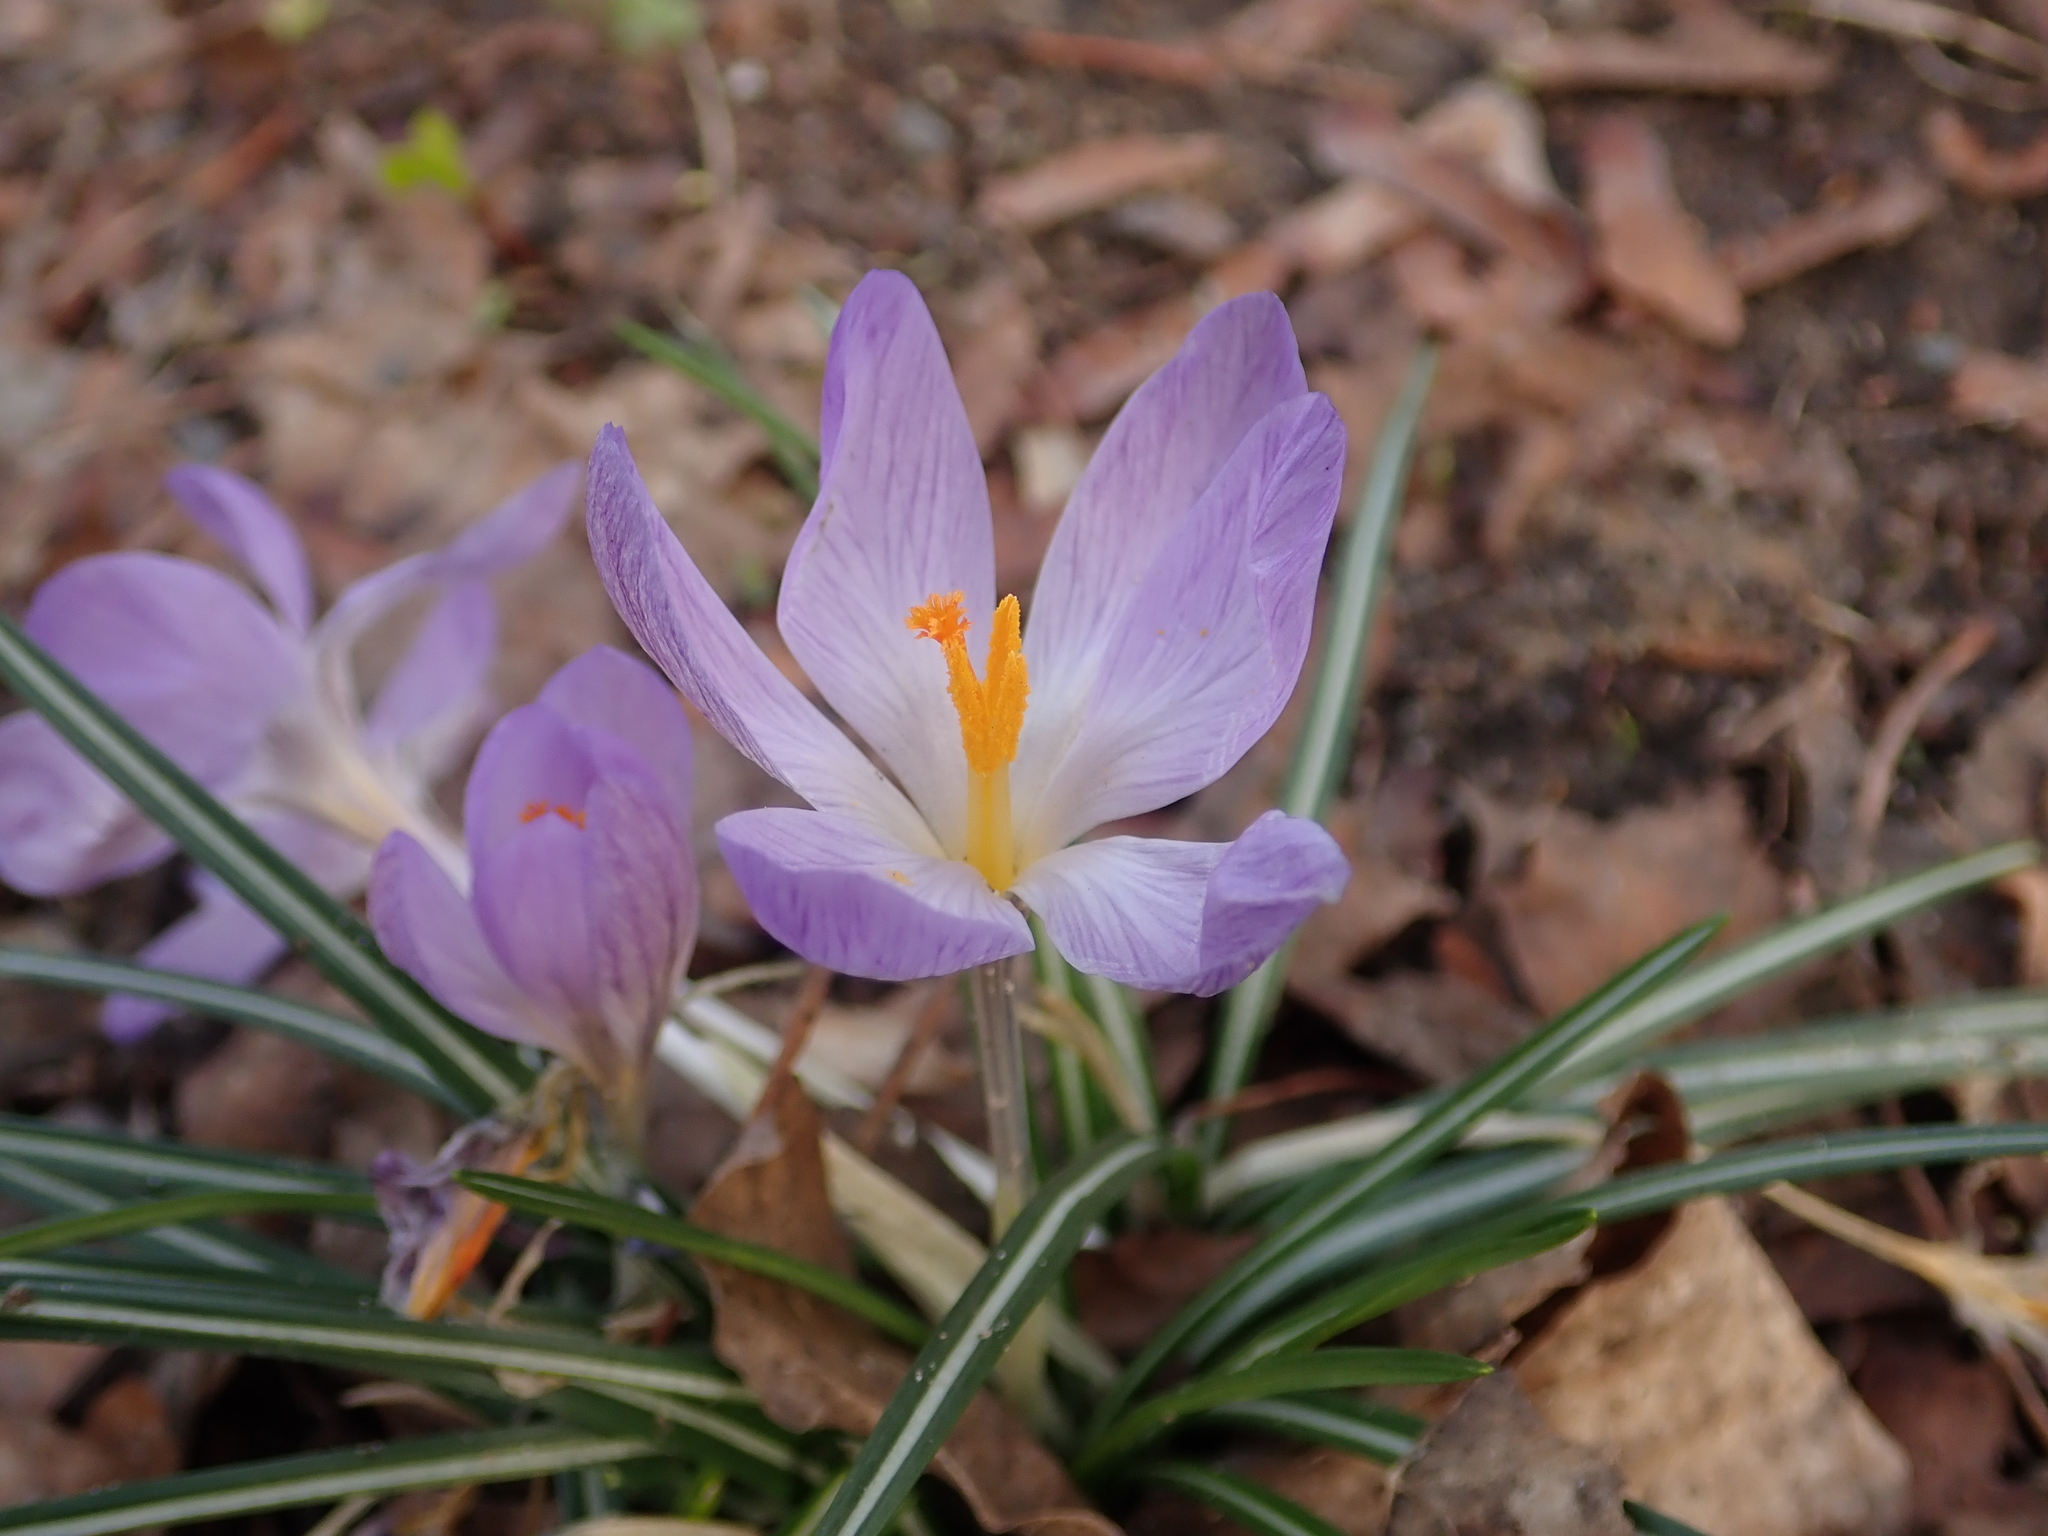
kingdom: Plantae
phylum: Tracheophyta
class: Liliopsida
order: Asparagales
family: Iridaceae
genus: Crocus
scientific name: Crocus tommasinianus
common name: Early crocus
